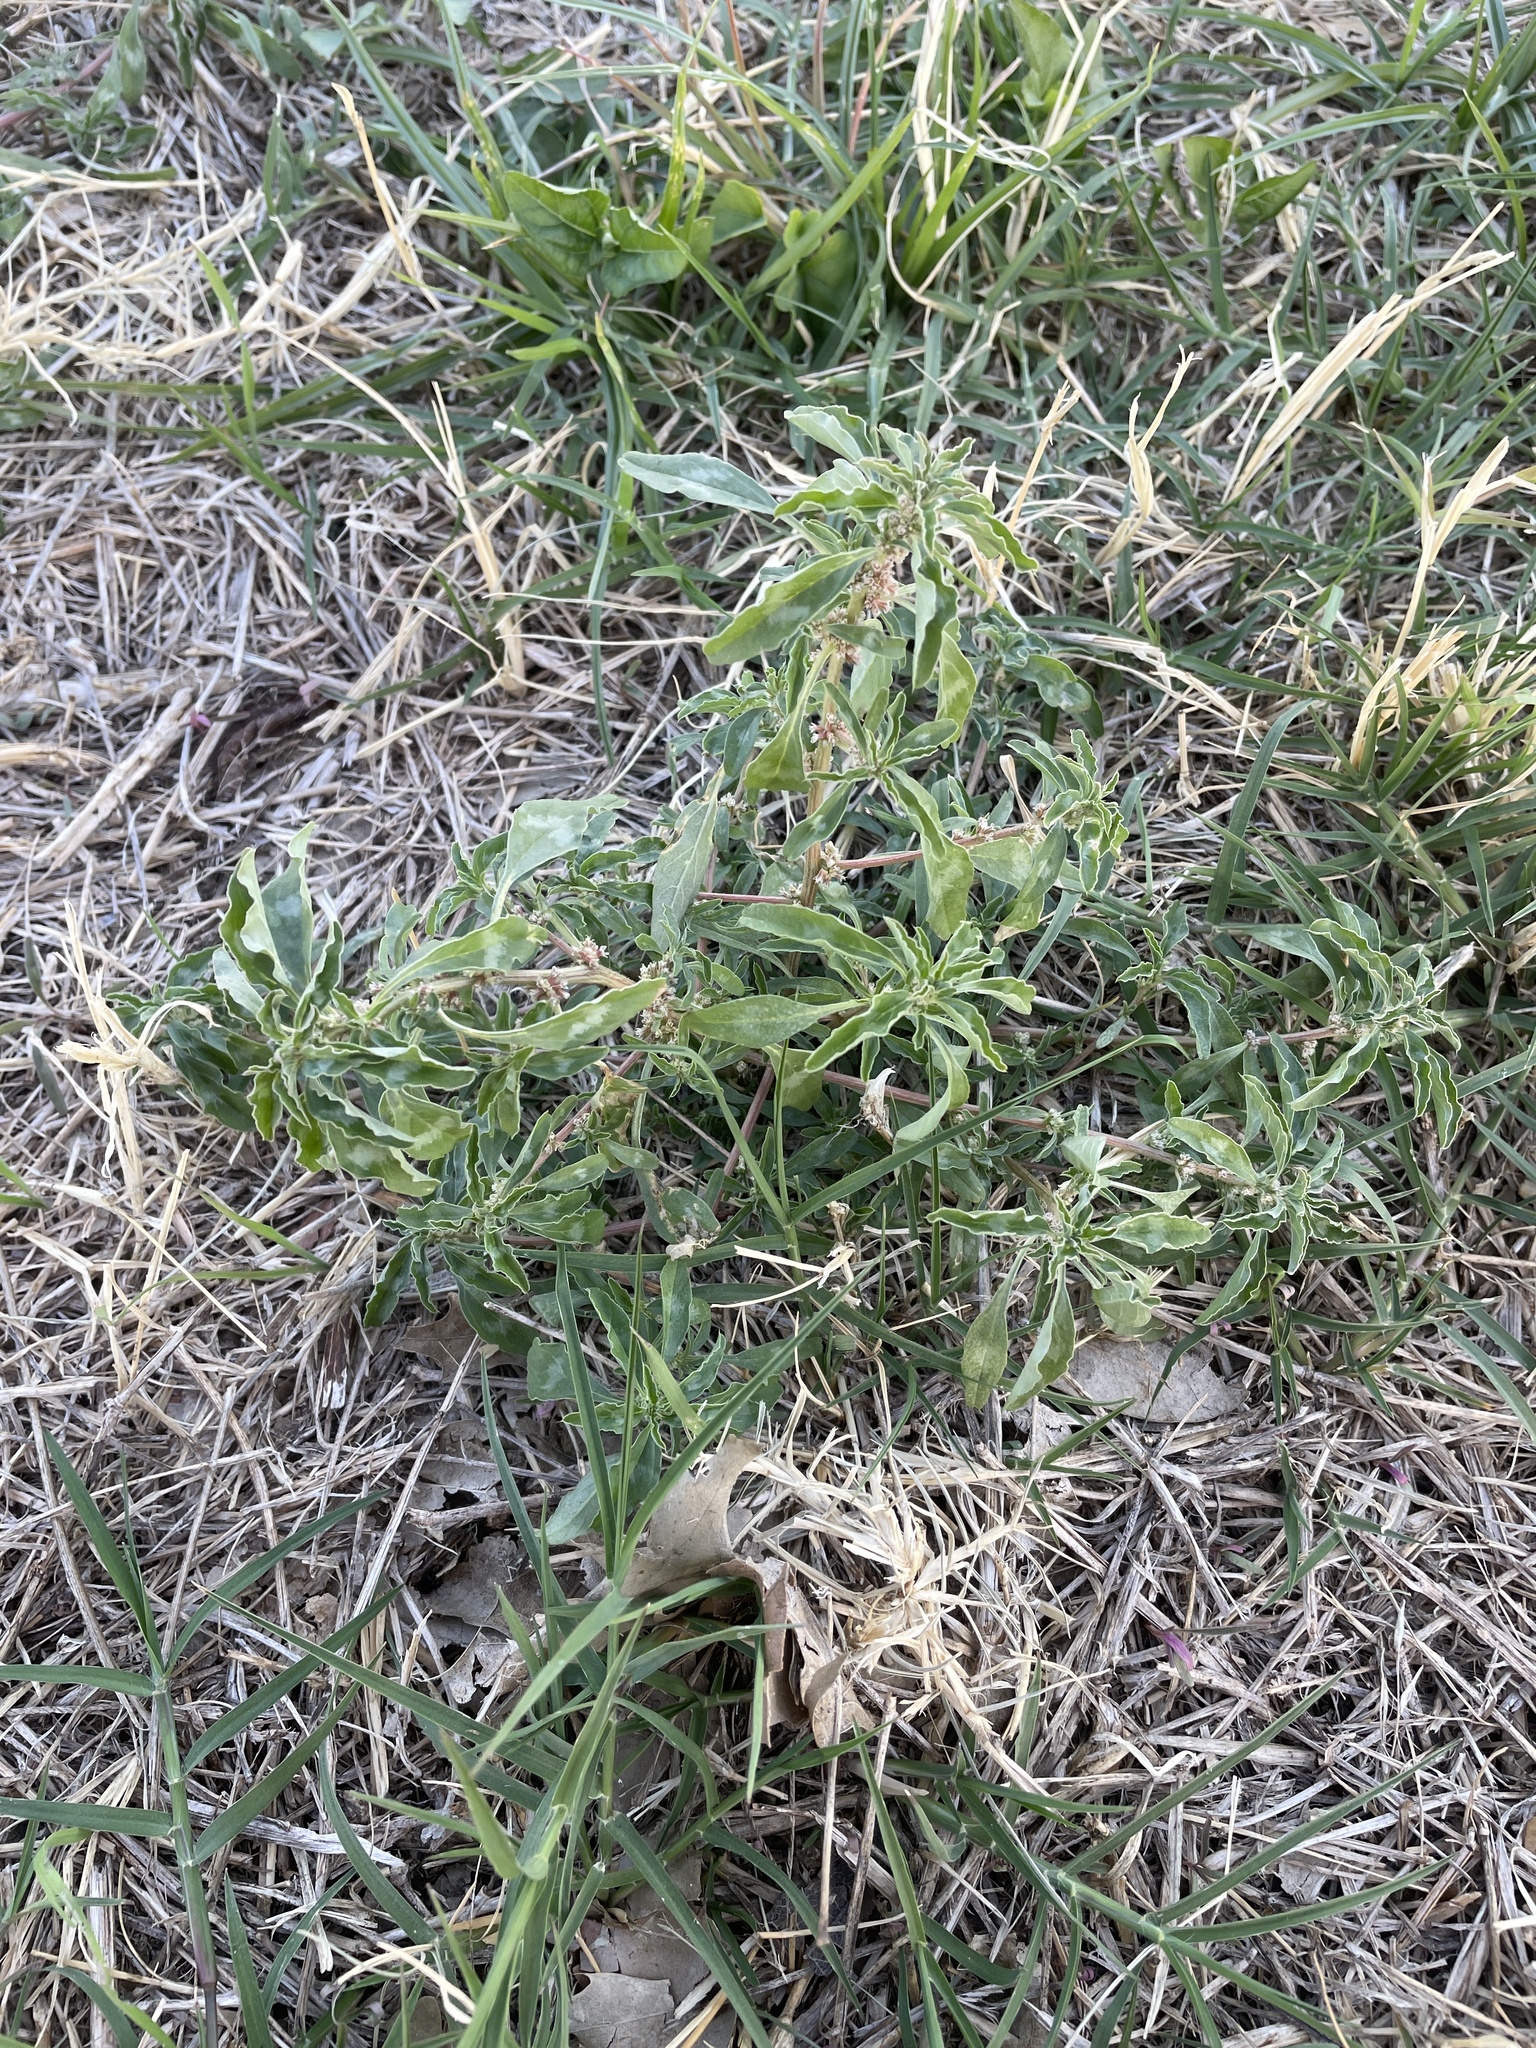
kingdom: Plantae
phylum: Tracheophyta
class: Magnoliopsida
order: Caryophyllales
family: Amaranthaceae
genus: Amaranthus
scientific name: Amaranthus polygonoides
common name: Tropical amaranth
